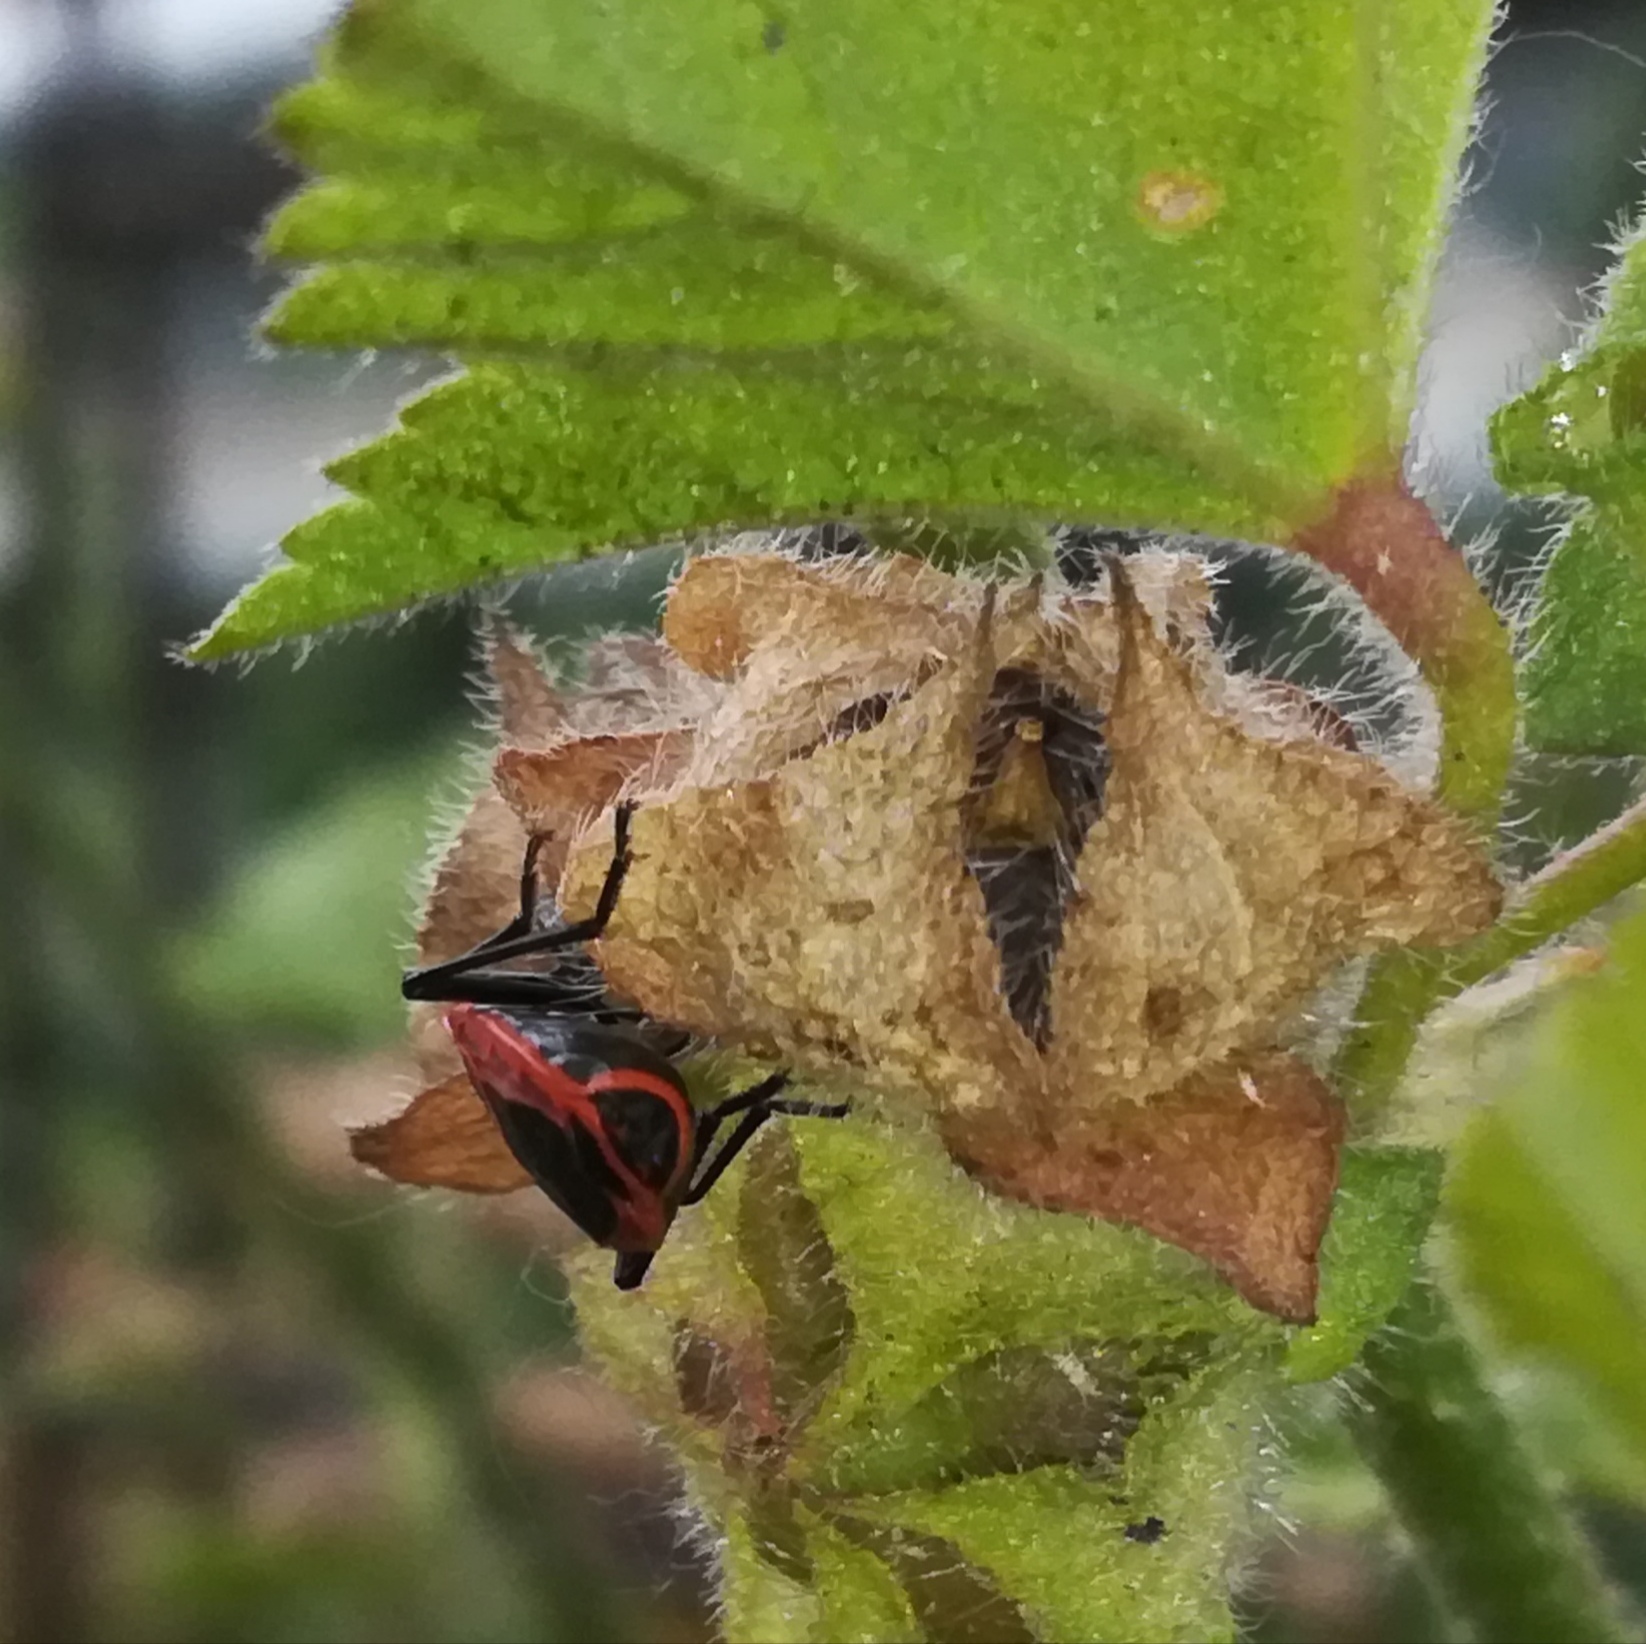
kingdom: Animalia
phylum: Arthropoda
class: Insecta
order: Hemiptera
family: Pyrrhocoridae
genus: Pyrrhocoris
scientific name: Pyrrhocoris apterus
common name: Firebug
